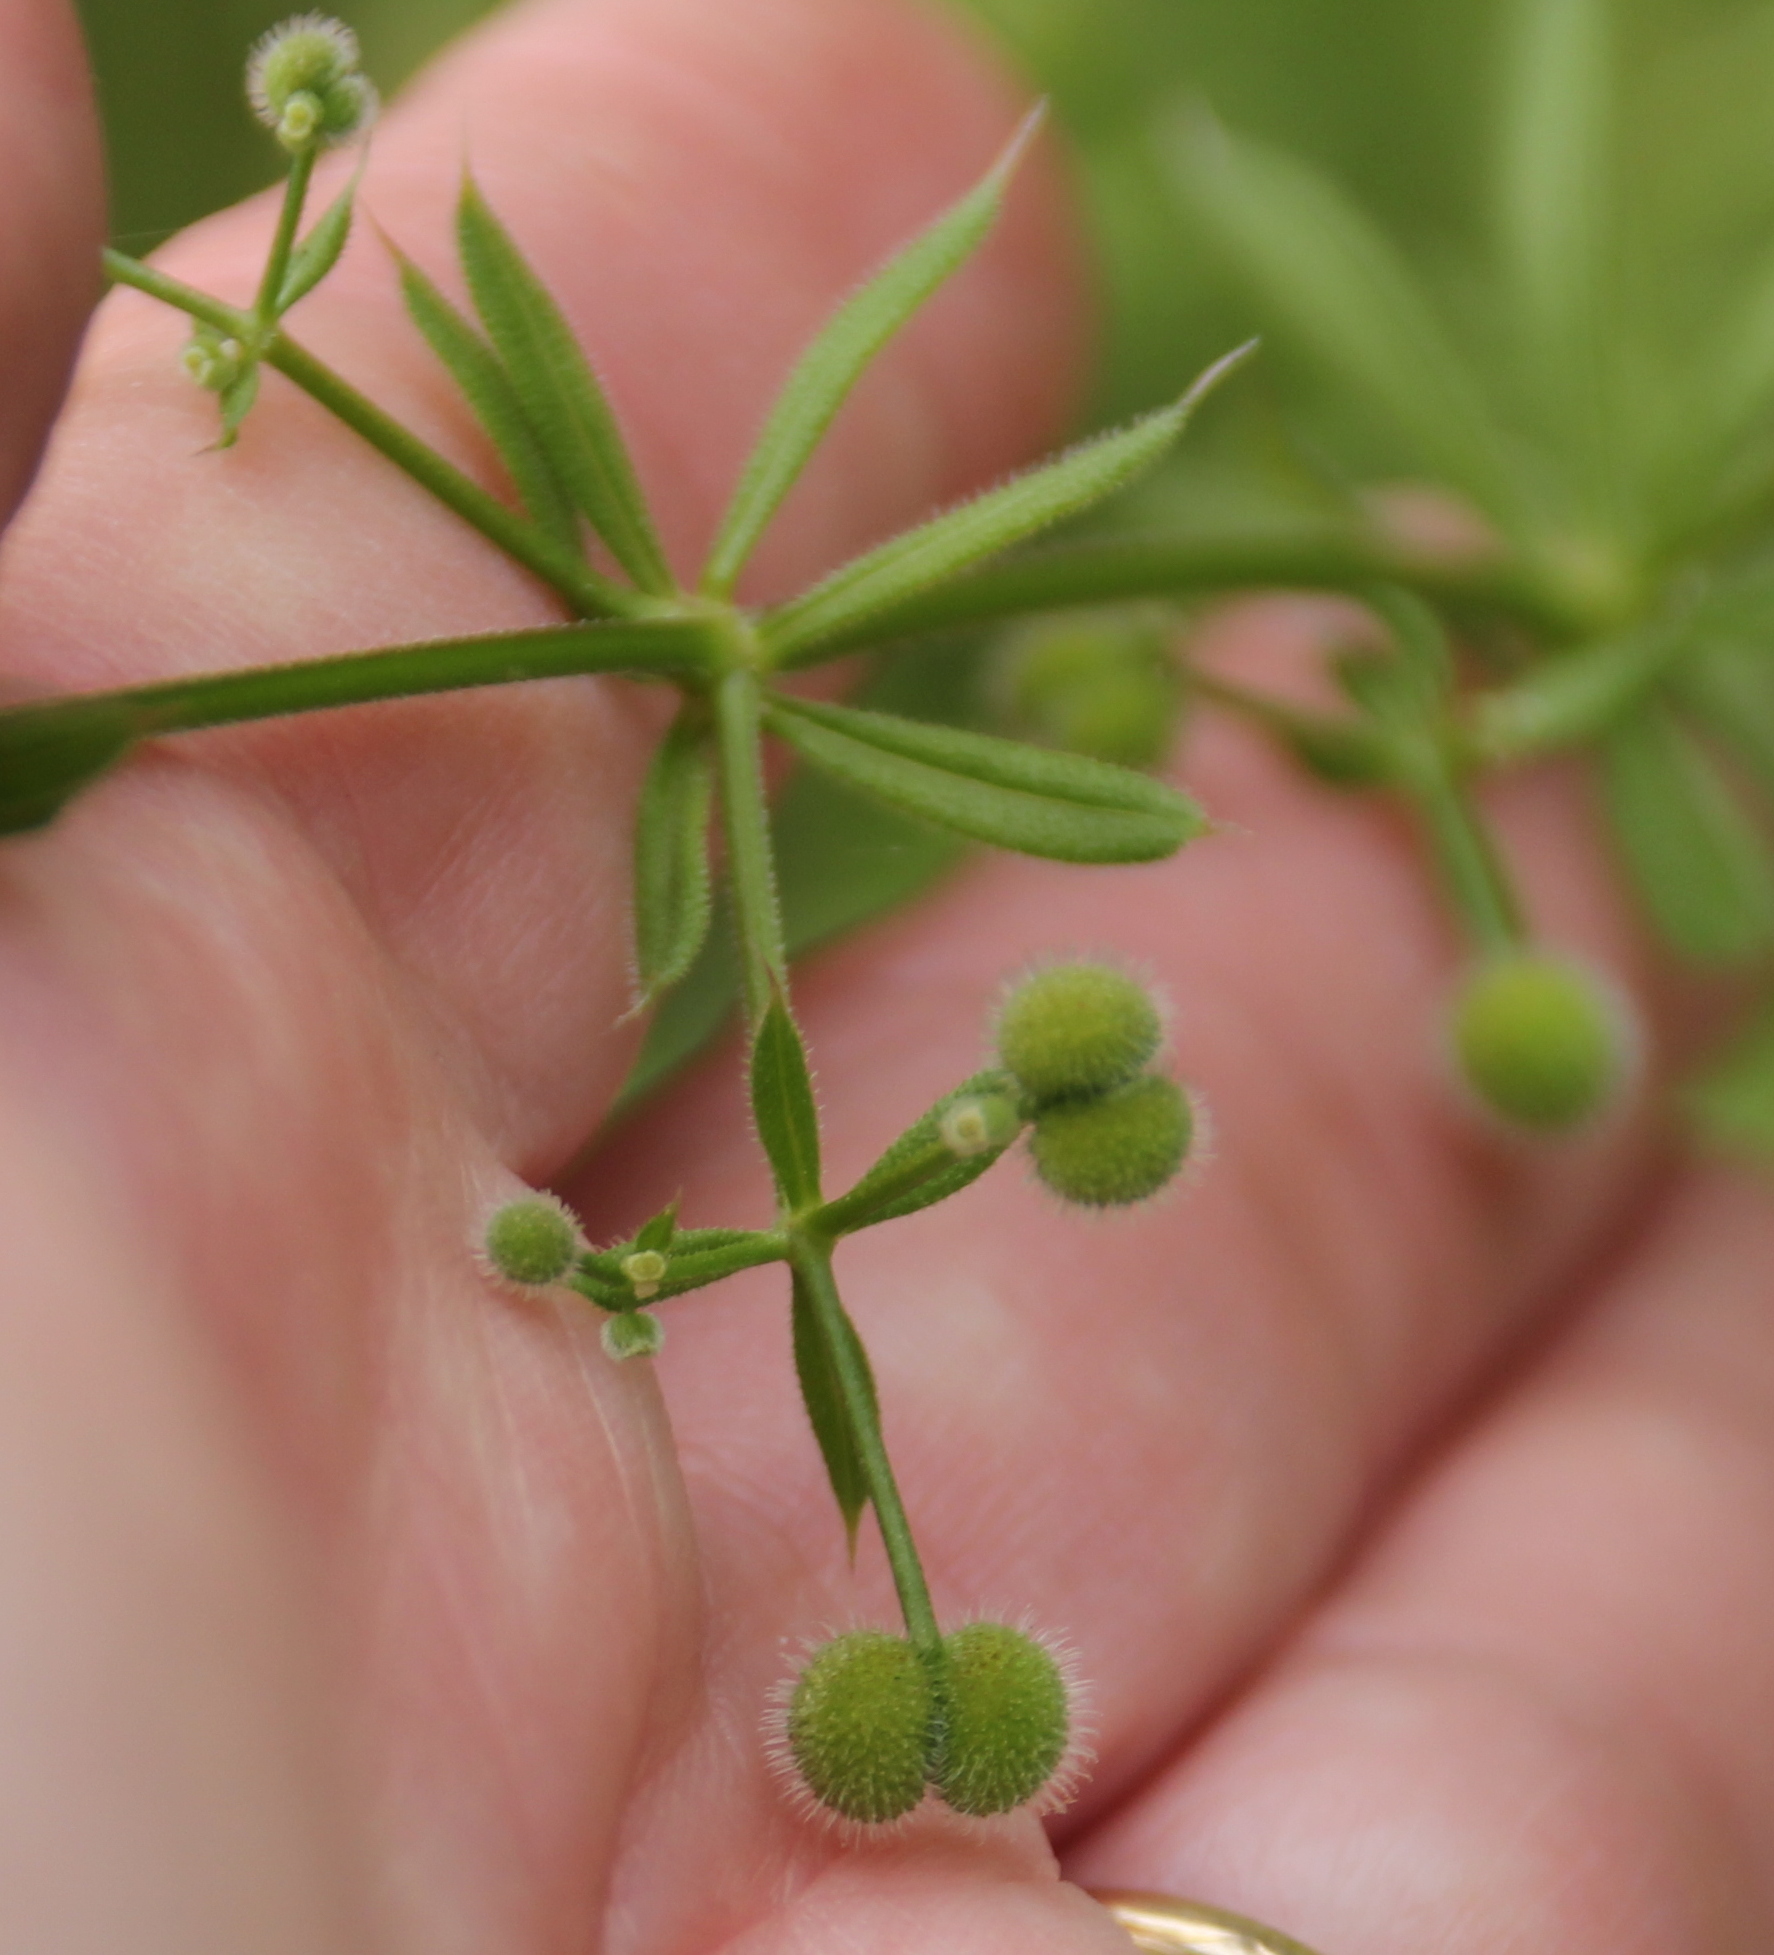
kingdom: Plantae
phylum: Tracheophyta
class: Magnoliopsida
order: Gentianales
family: Rubiaceae
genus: Galium
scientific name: Galium aparine
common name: Cleavers
